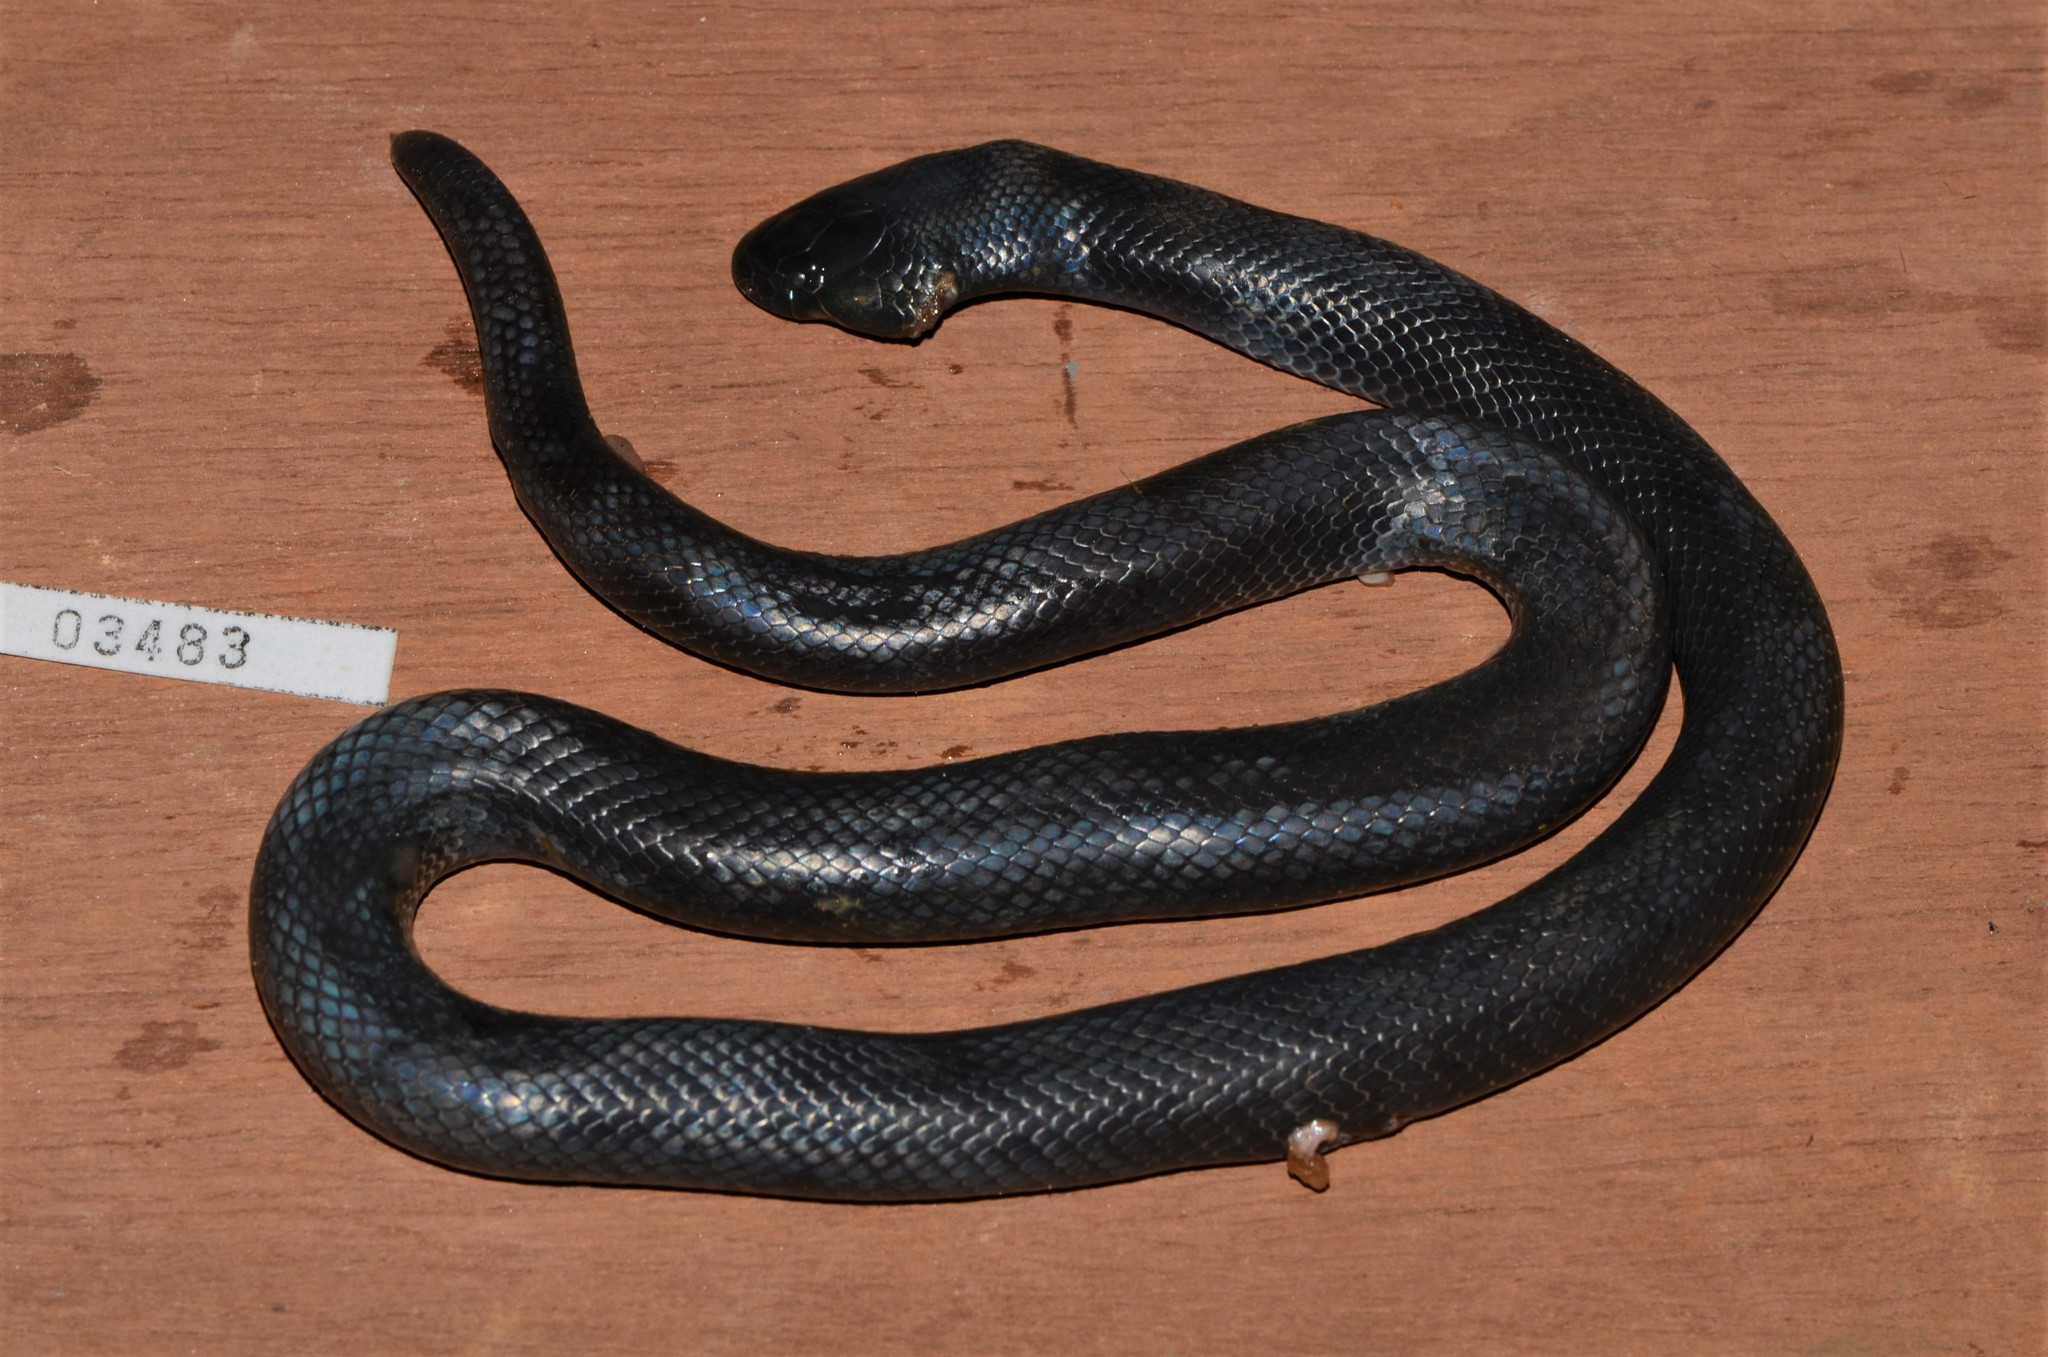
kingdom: Animalia
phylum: Chordata
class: Squamata
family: Atractaspididae
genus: Atractaspis
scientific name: Atractaspis boulengeri
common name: Mole viper
